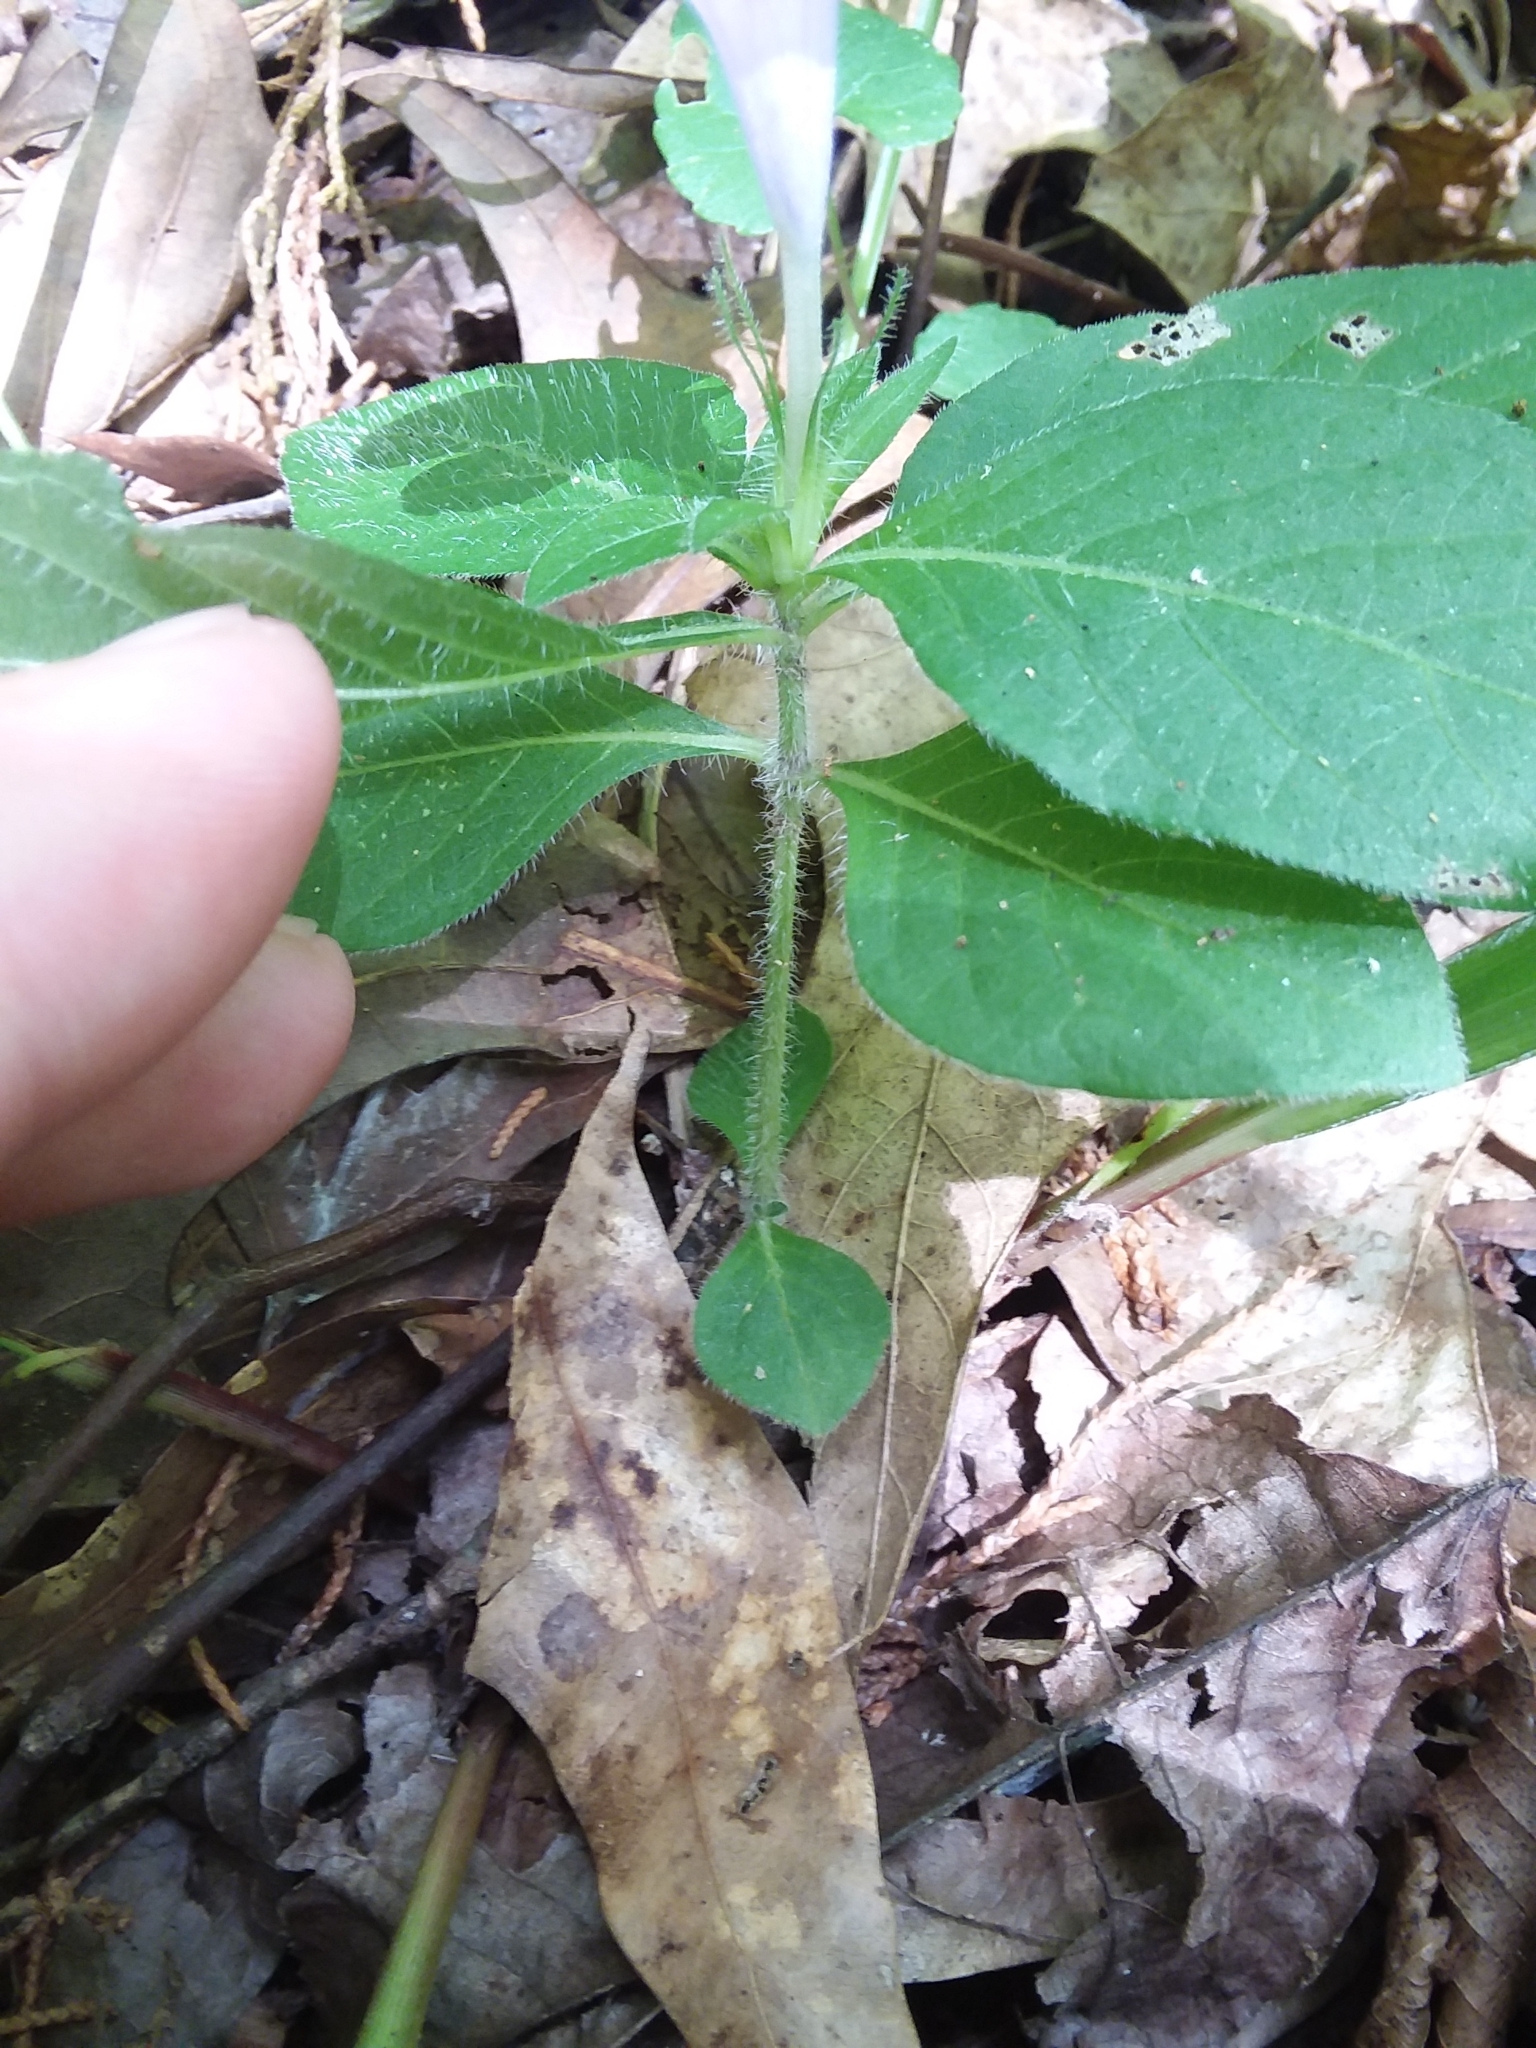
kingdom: Plantae
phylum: Tracheophyta
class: Magnoliopsida
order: Lamiales
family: Acanthaceae
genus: Ruellia
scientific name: Ruellia caroliniensis
